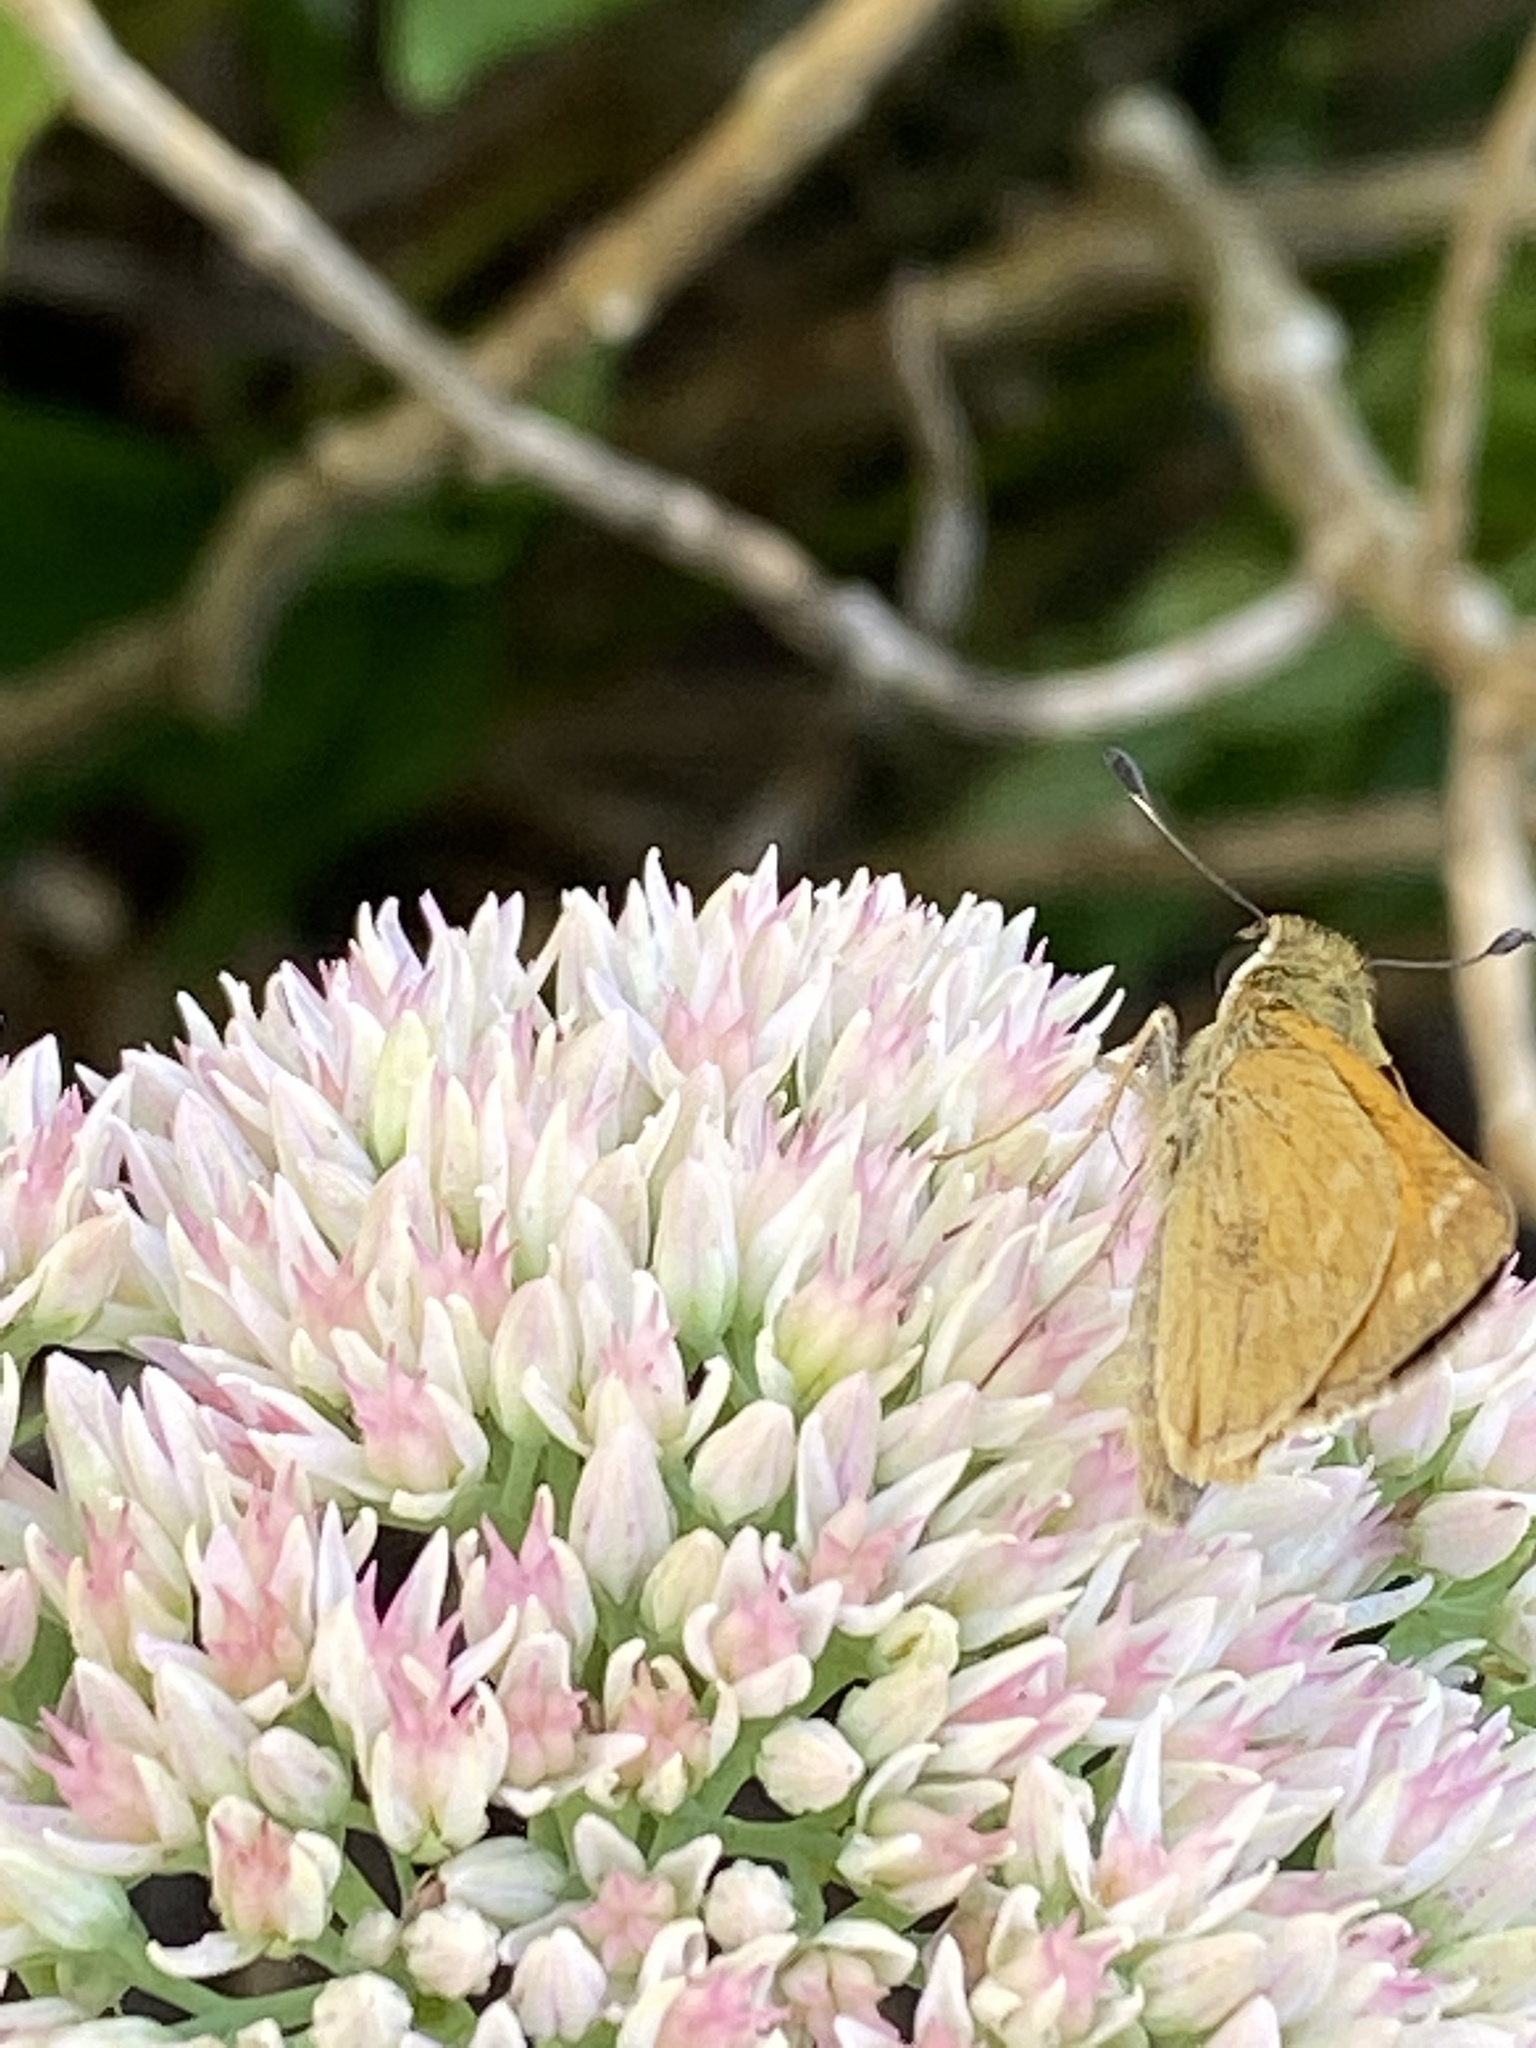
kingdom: Animalia
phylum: Arthropoda
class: Insecta
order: Lepidoptera
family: Hesperiidae
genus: Atalopedes
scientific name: Atalopedes
